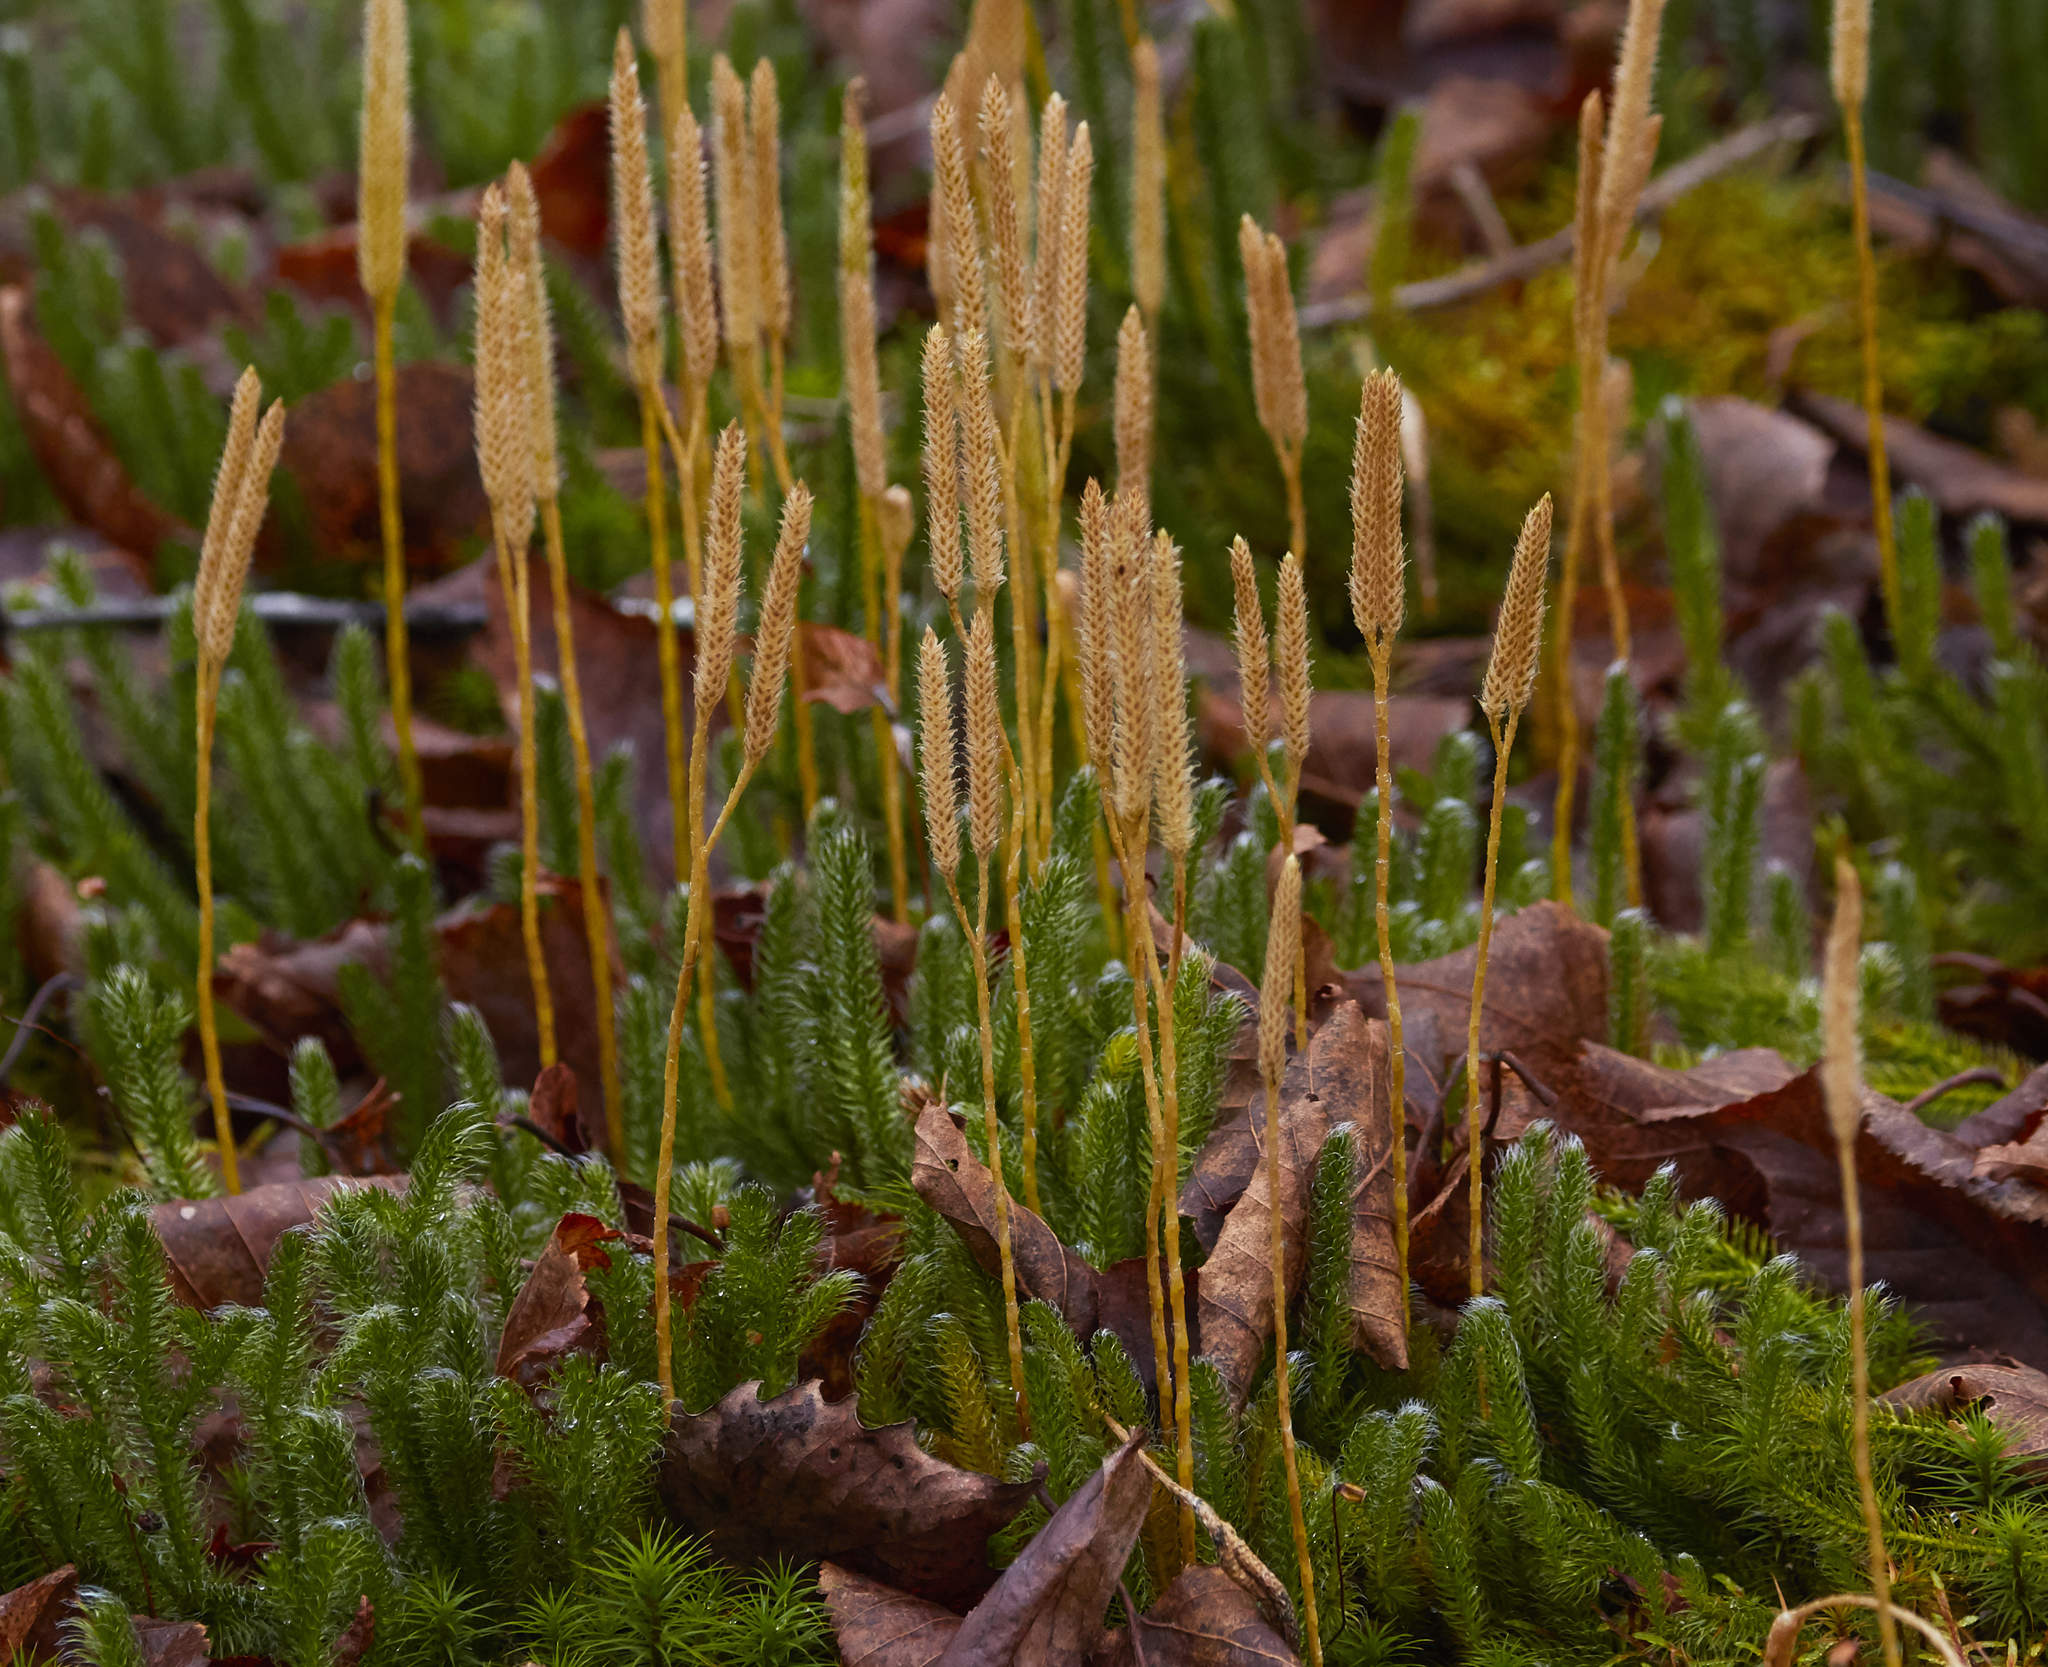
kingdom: Plantae
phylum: Tracheophyta
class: Lycopodiopsida
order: Lycopodiales
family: Lycopodiaceae
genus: Lycopodium
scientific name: Lycopodium clavatum
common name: Stag's-horn clubmoss
